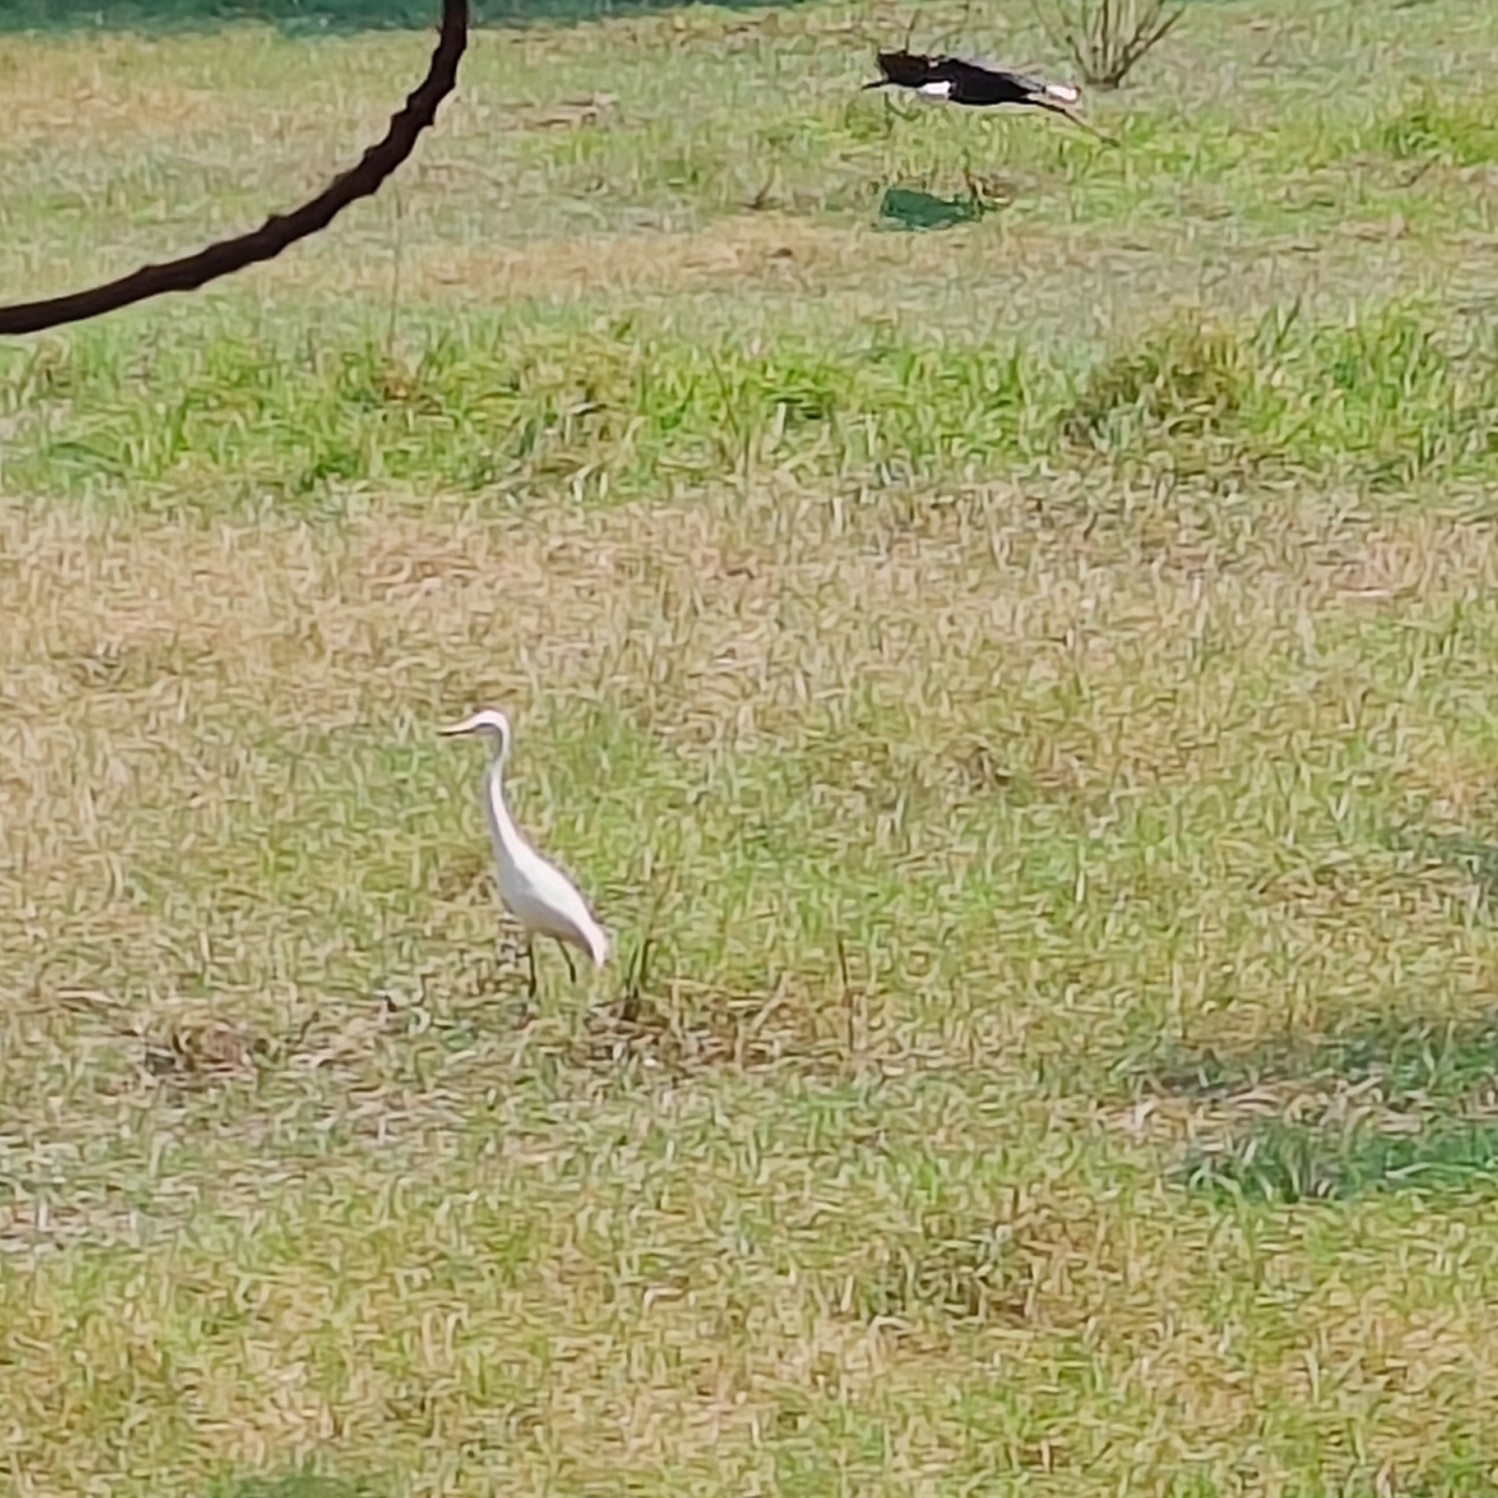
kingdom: Animalia
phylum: Chordata
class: Aves
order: Pelecaniformes
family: Ardeidae
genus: Egretta
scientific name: Egretta intermedia
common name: Intermediate egret
